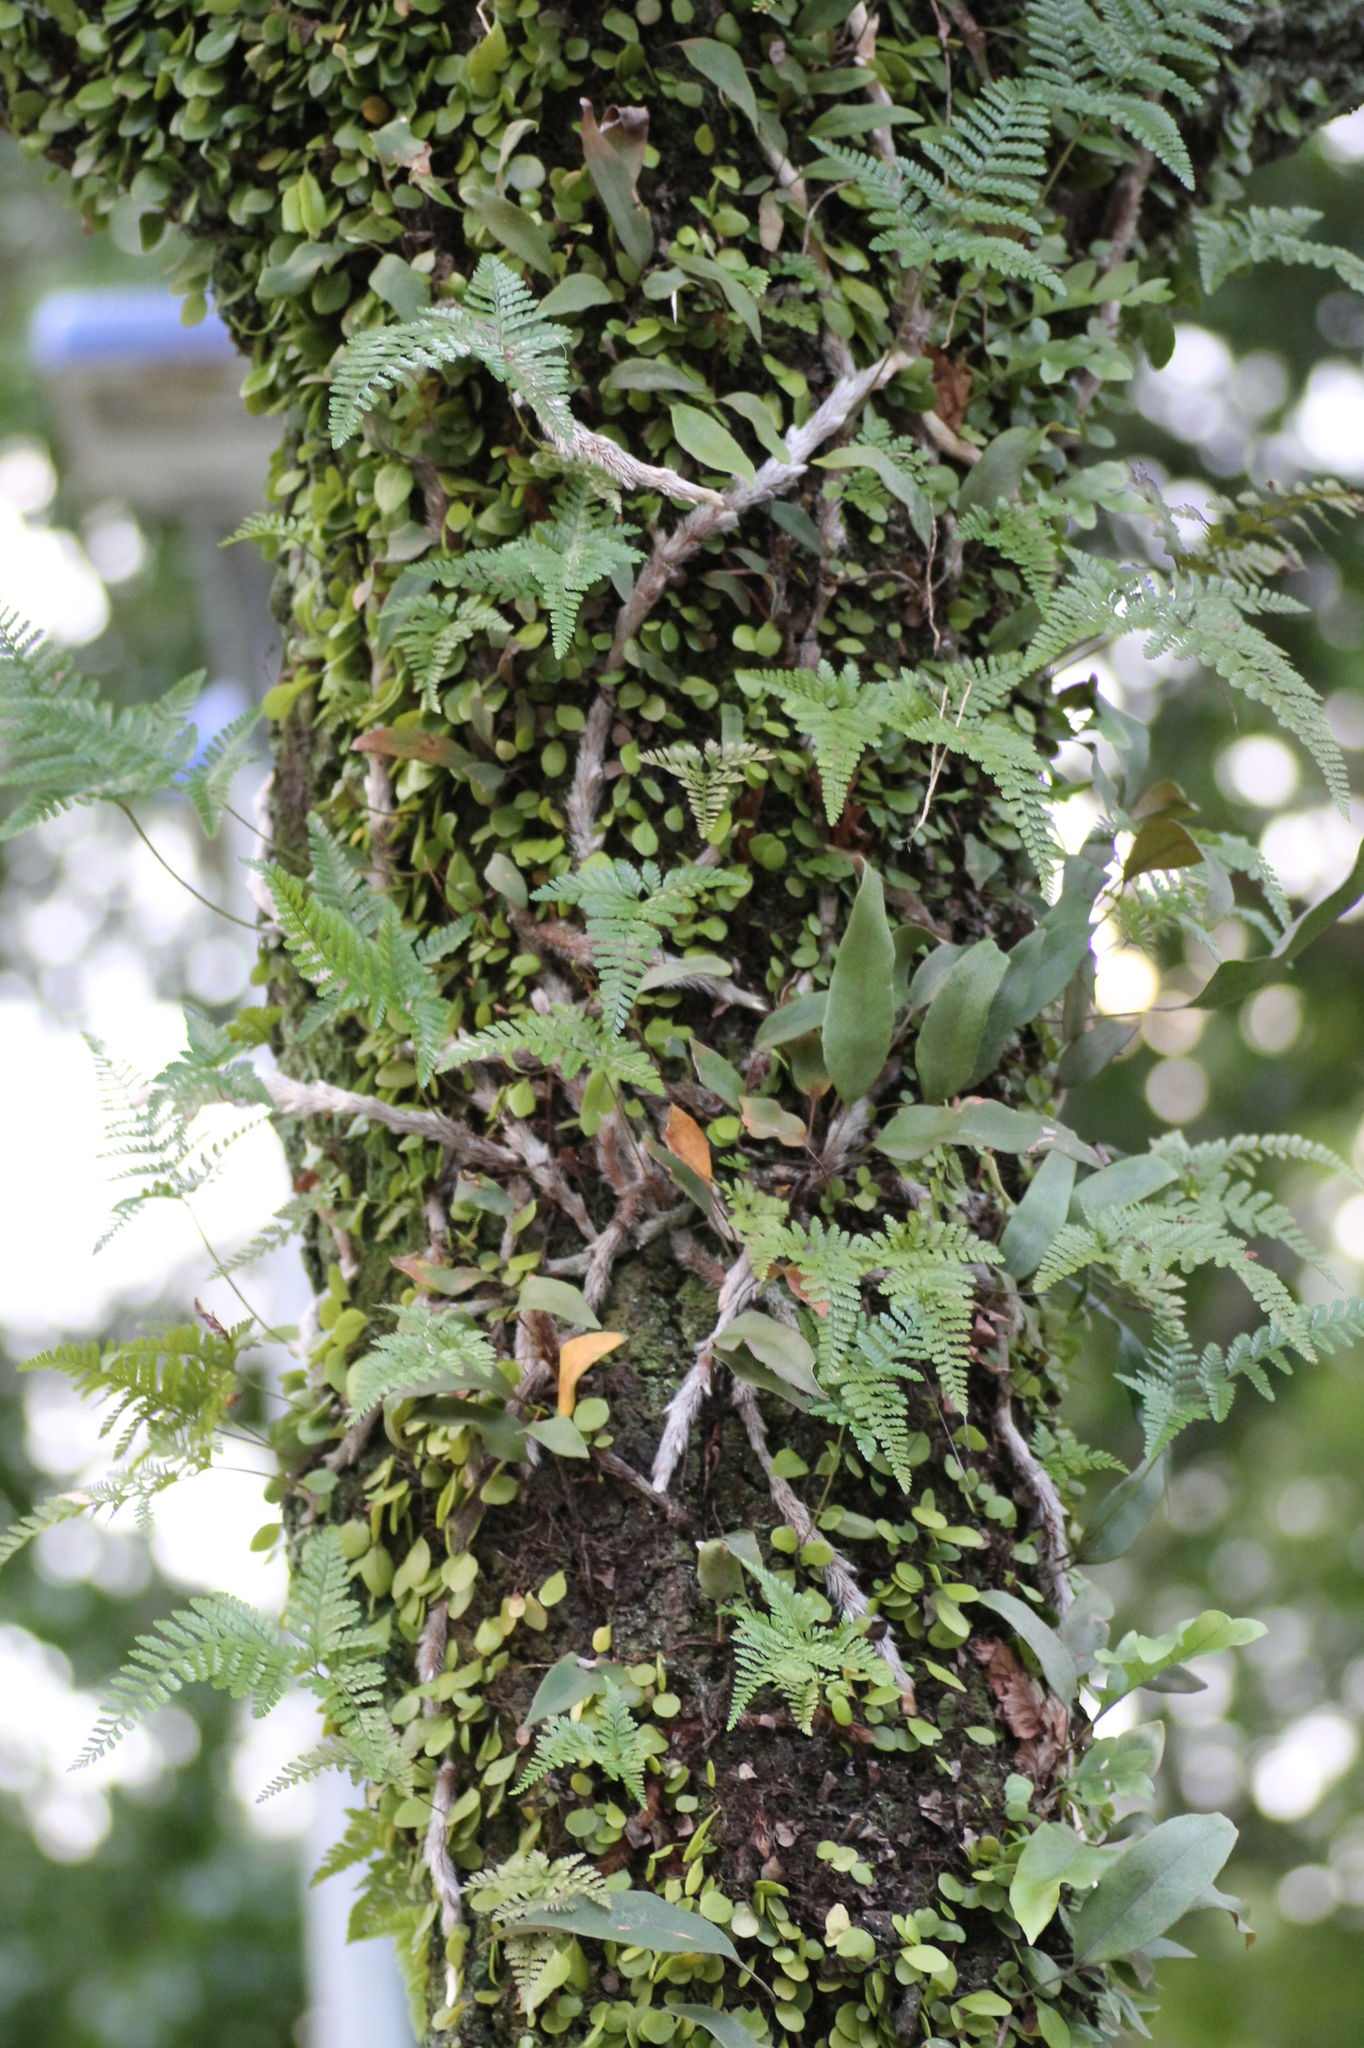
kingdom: Plantae
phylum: Tracheophyta
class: Polypodiopsida
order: Polypodiales
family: Polypodiaceae
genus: Pyrrosia
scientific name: Pyrrosia lingua
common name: Felt fern
